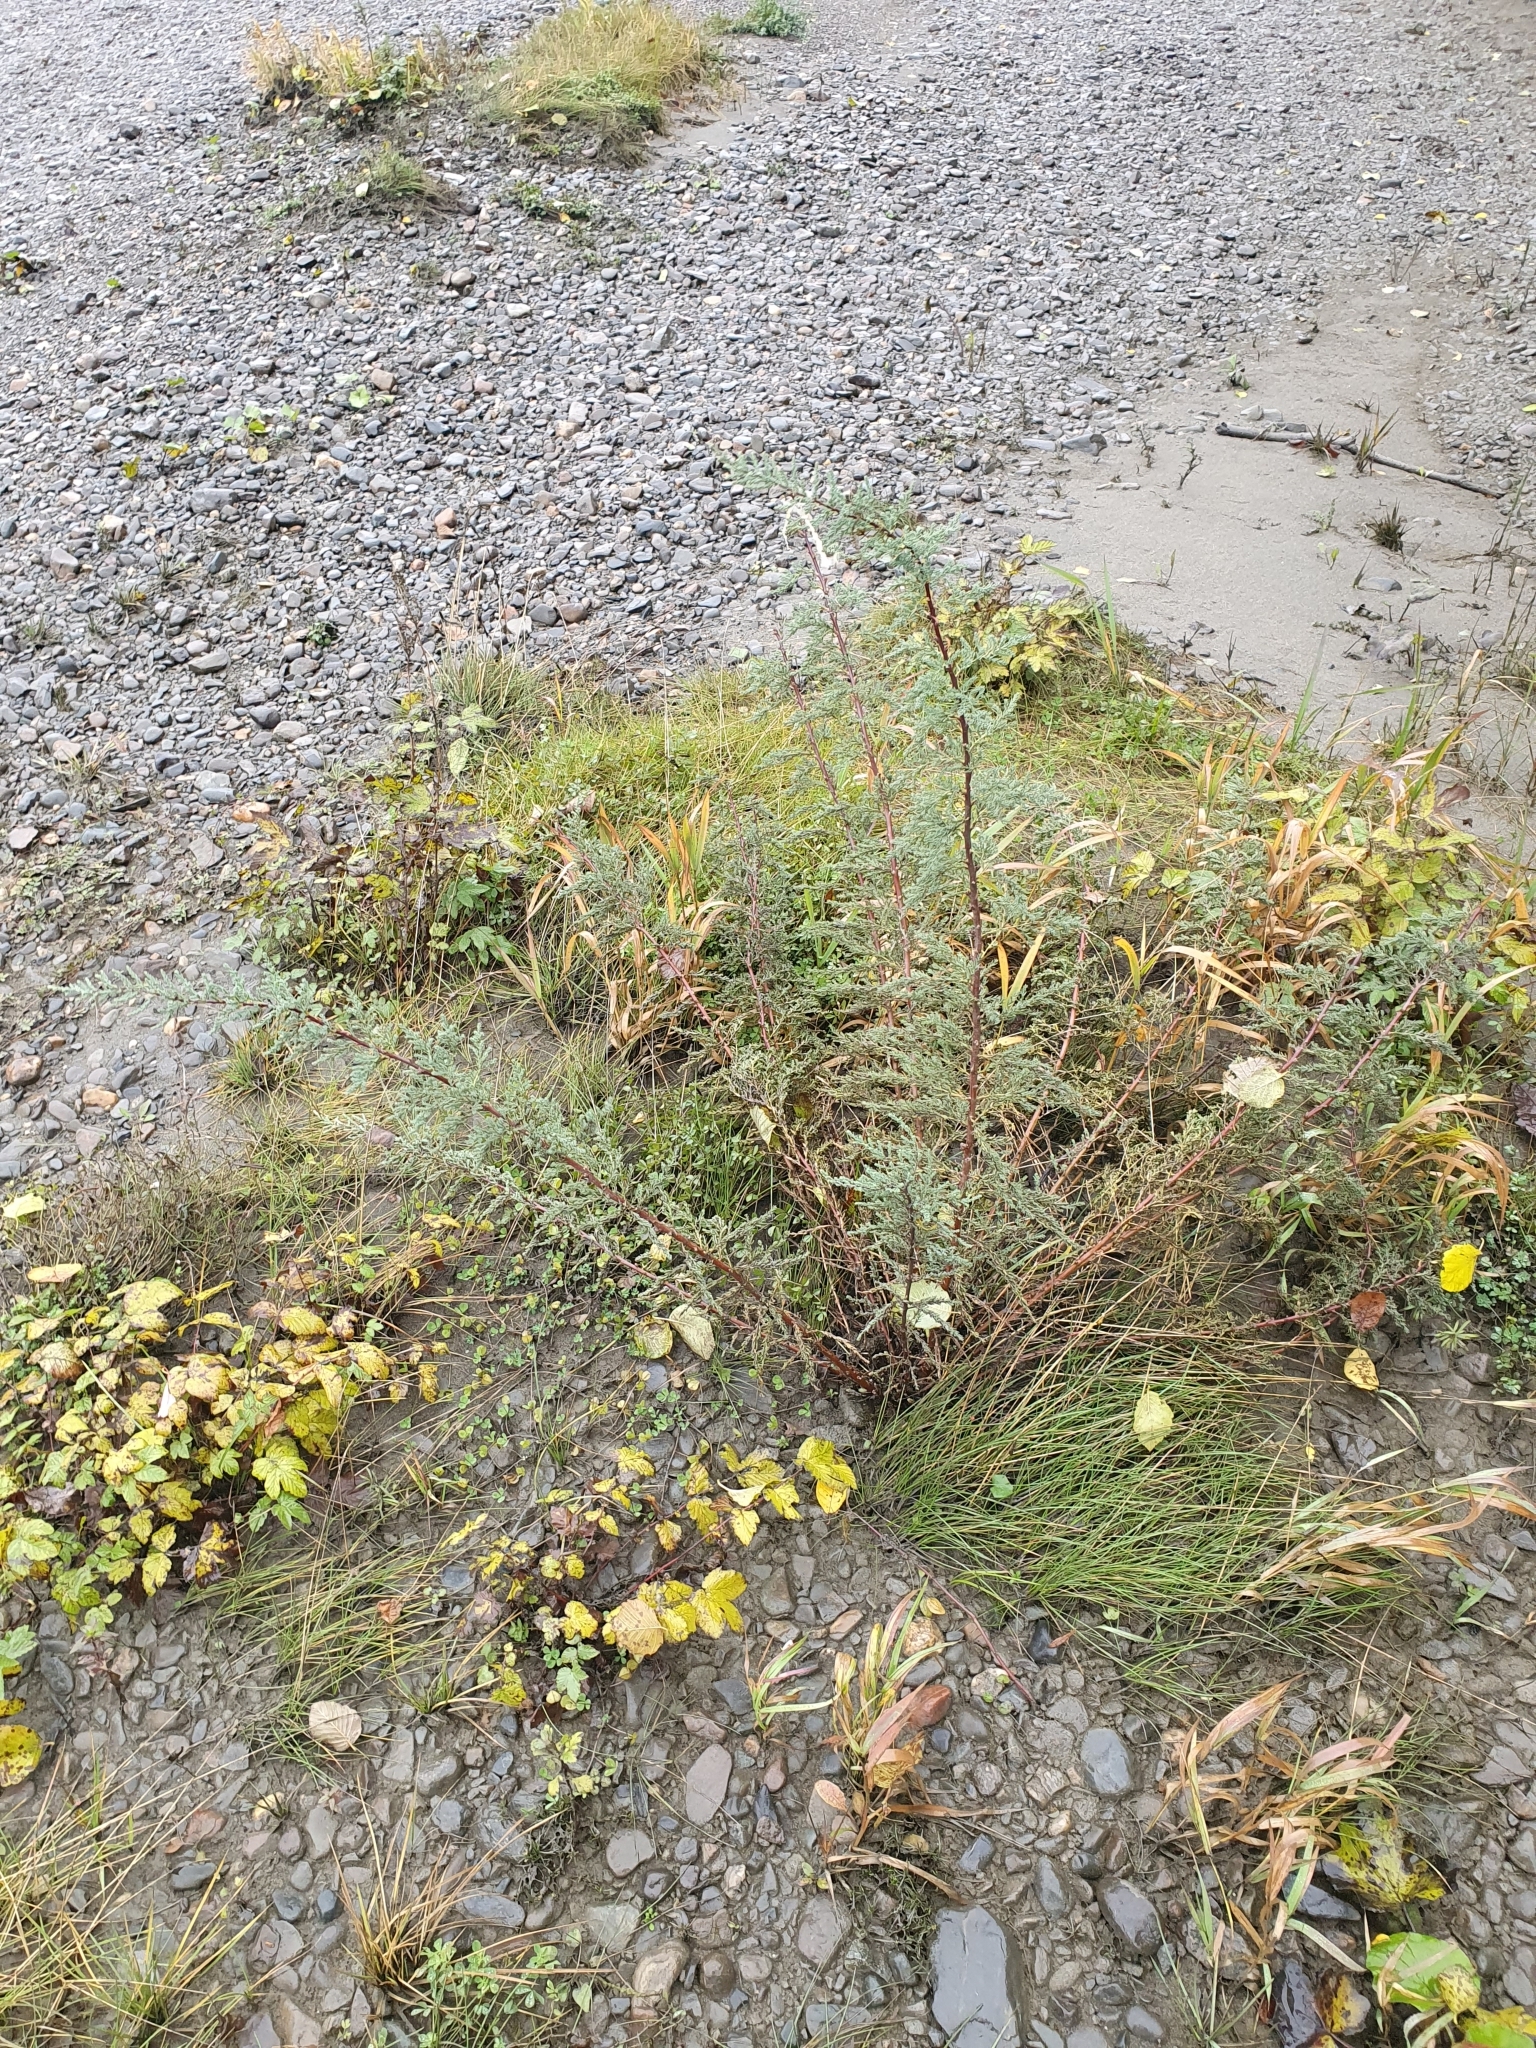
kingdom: Plantae
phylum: Tracheophyta
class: Magnoliopsida
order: Caryophyllales
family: Tamaricaceae
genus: Myricaria
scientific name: Myricaria germanica
